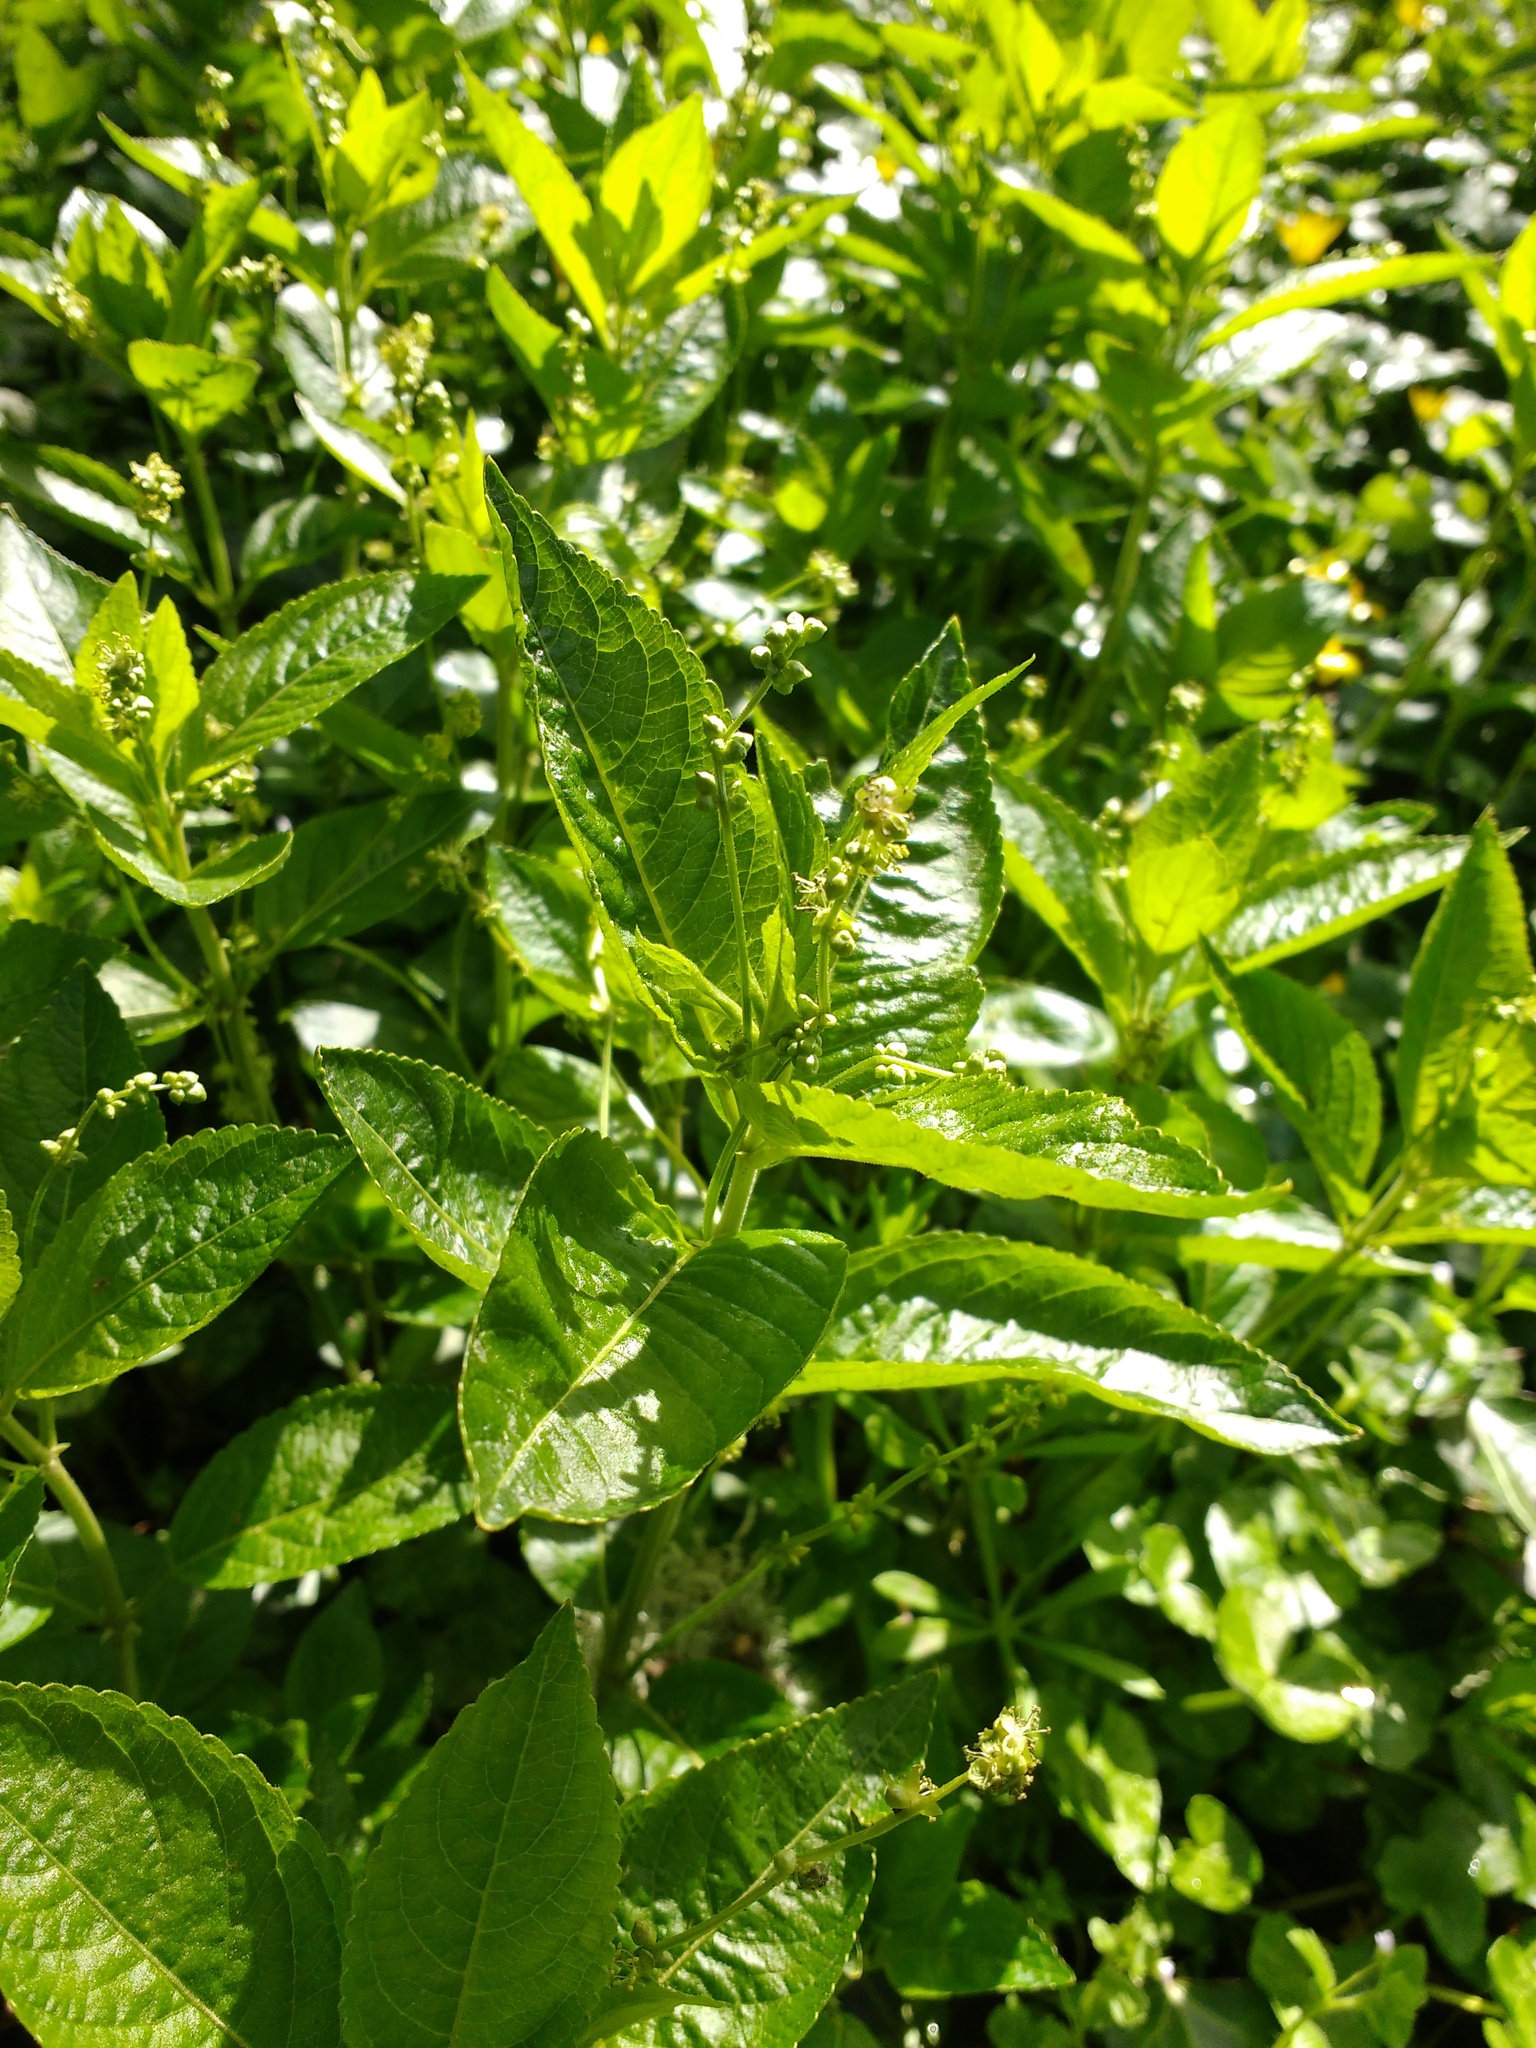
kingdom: Plantae
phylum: Tracheophyta
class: Magnoliopsida
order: Malpighiales
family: Euphorbiaceae
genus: Mercurialis
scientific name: Mercurialis perennis
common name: Dog mercury
